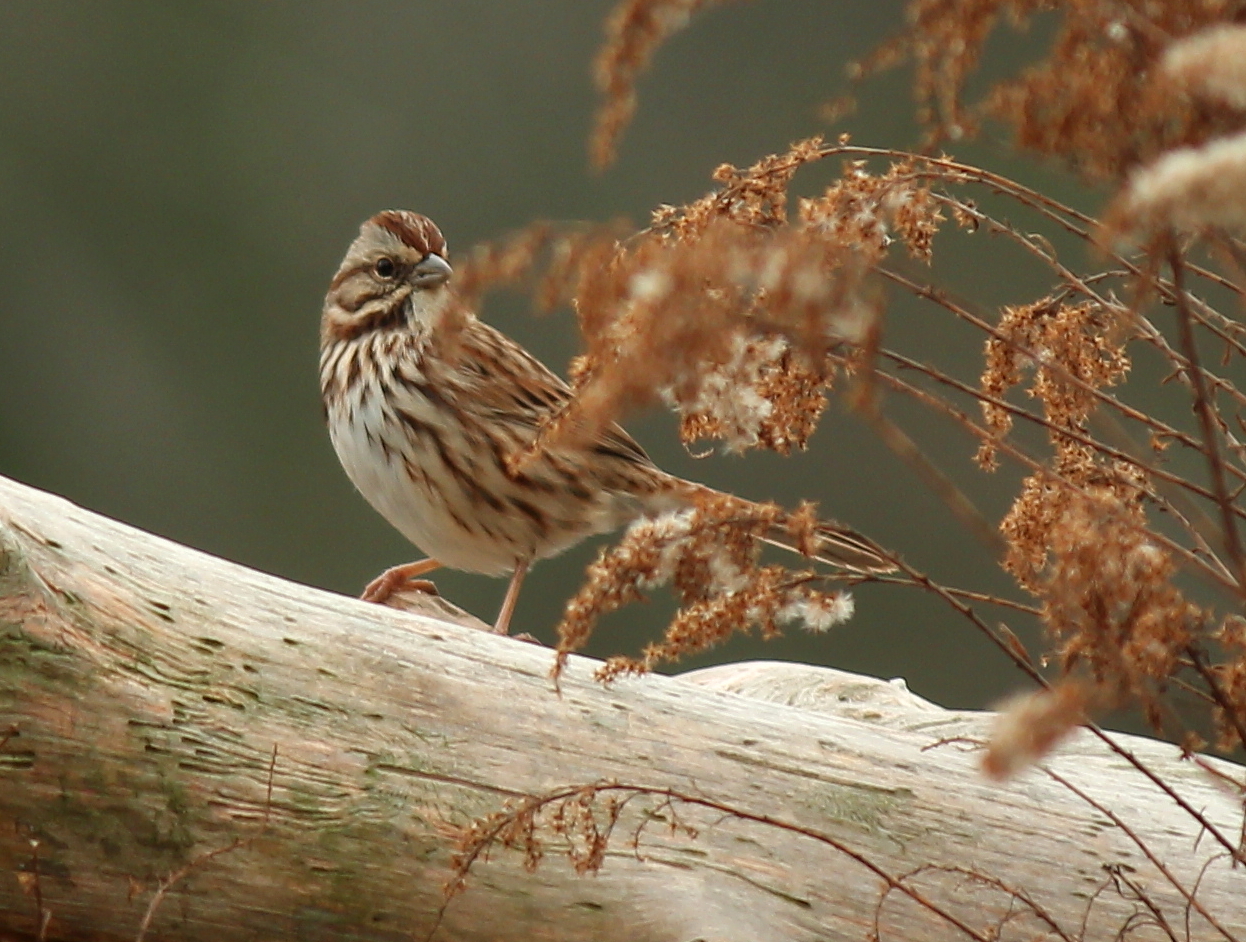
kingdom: Animalia
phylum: Chordata
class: Aves
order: Passeriformes
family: Passerellidae
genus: Melospiza
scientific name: Melospiza melodia
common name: Song sparrow
